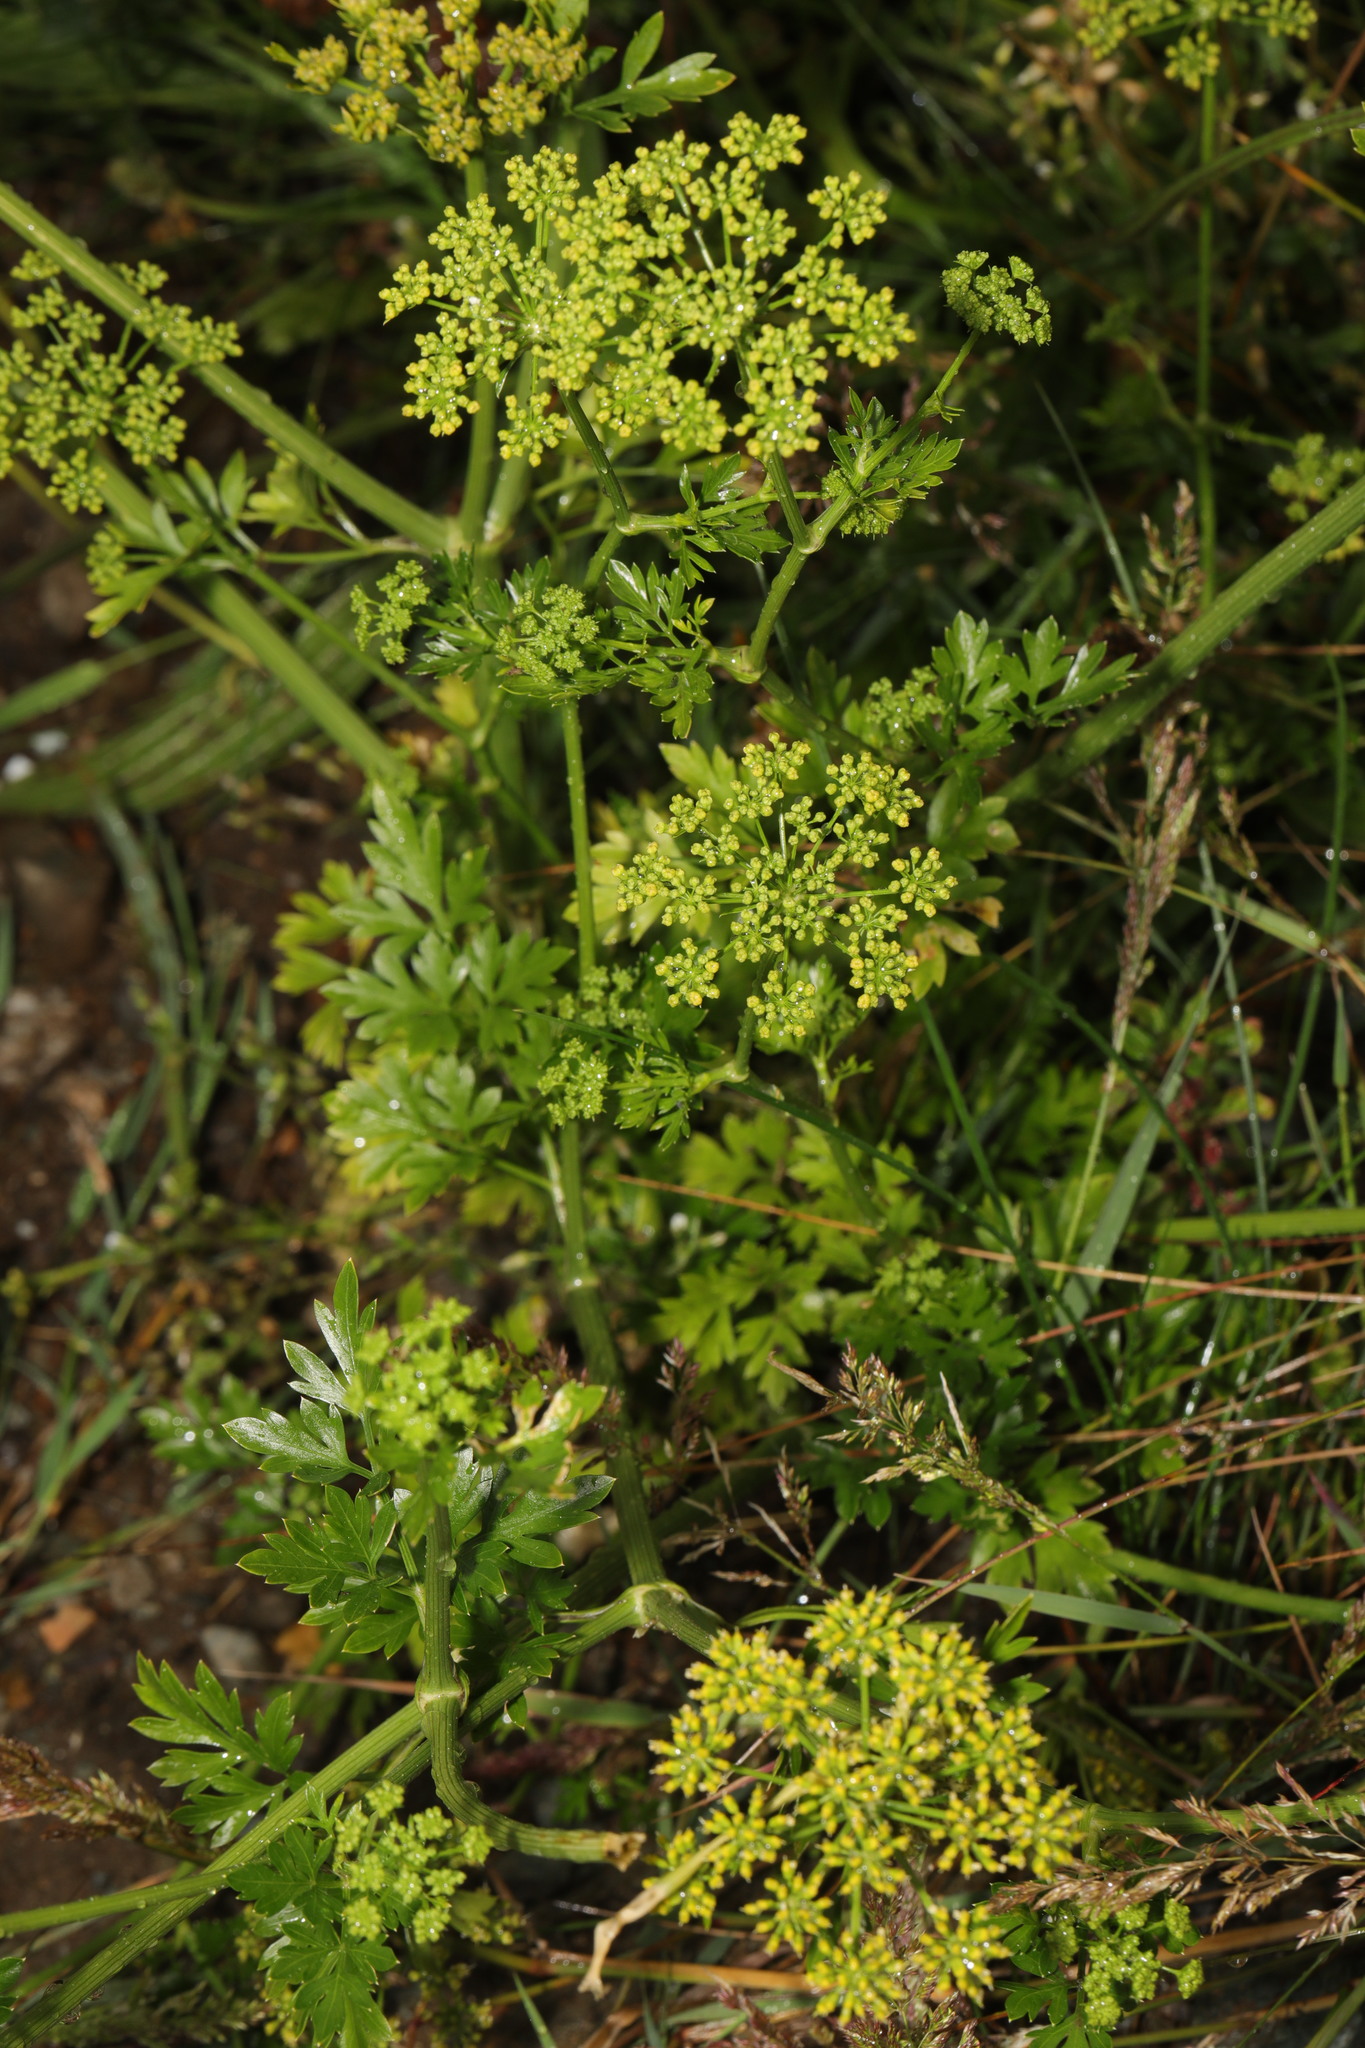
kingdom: Plantae
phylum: Tracheophyta
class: Magnoliopsida
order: Apiales
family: Apiaceae
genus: Petroselinum
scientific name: Petroselinum crispum
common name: Parsley
